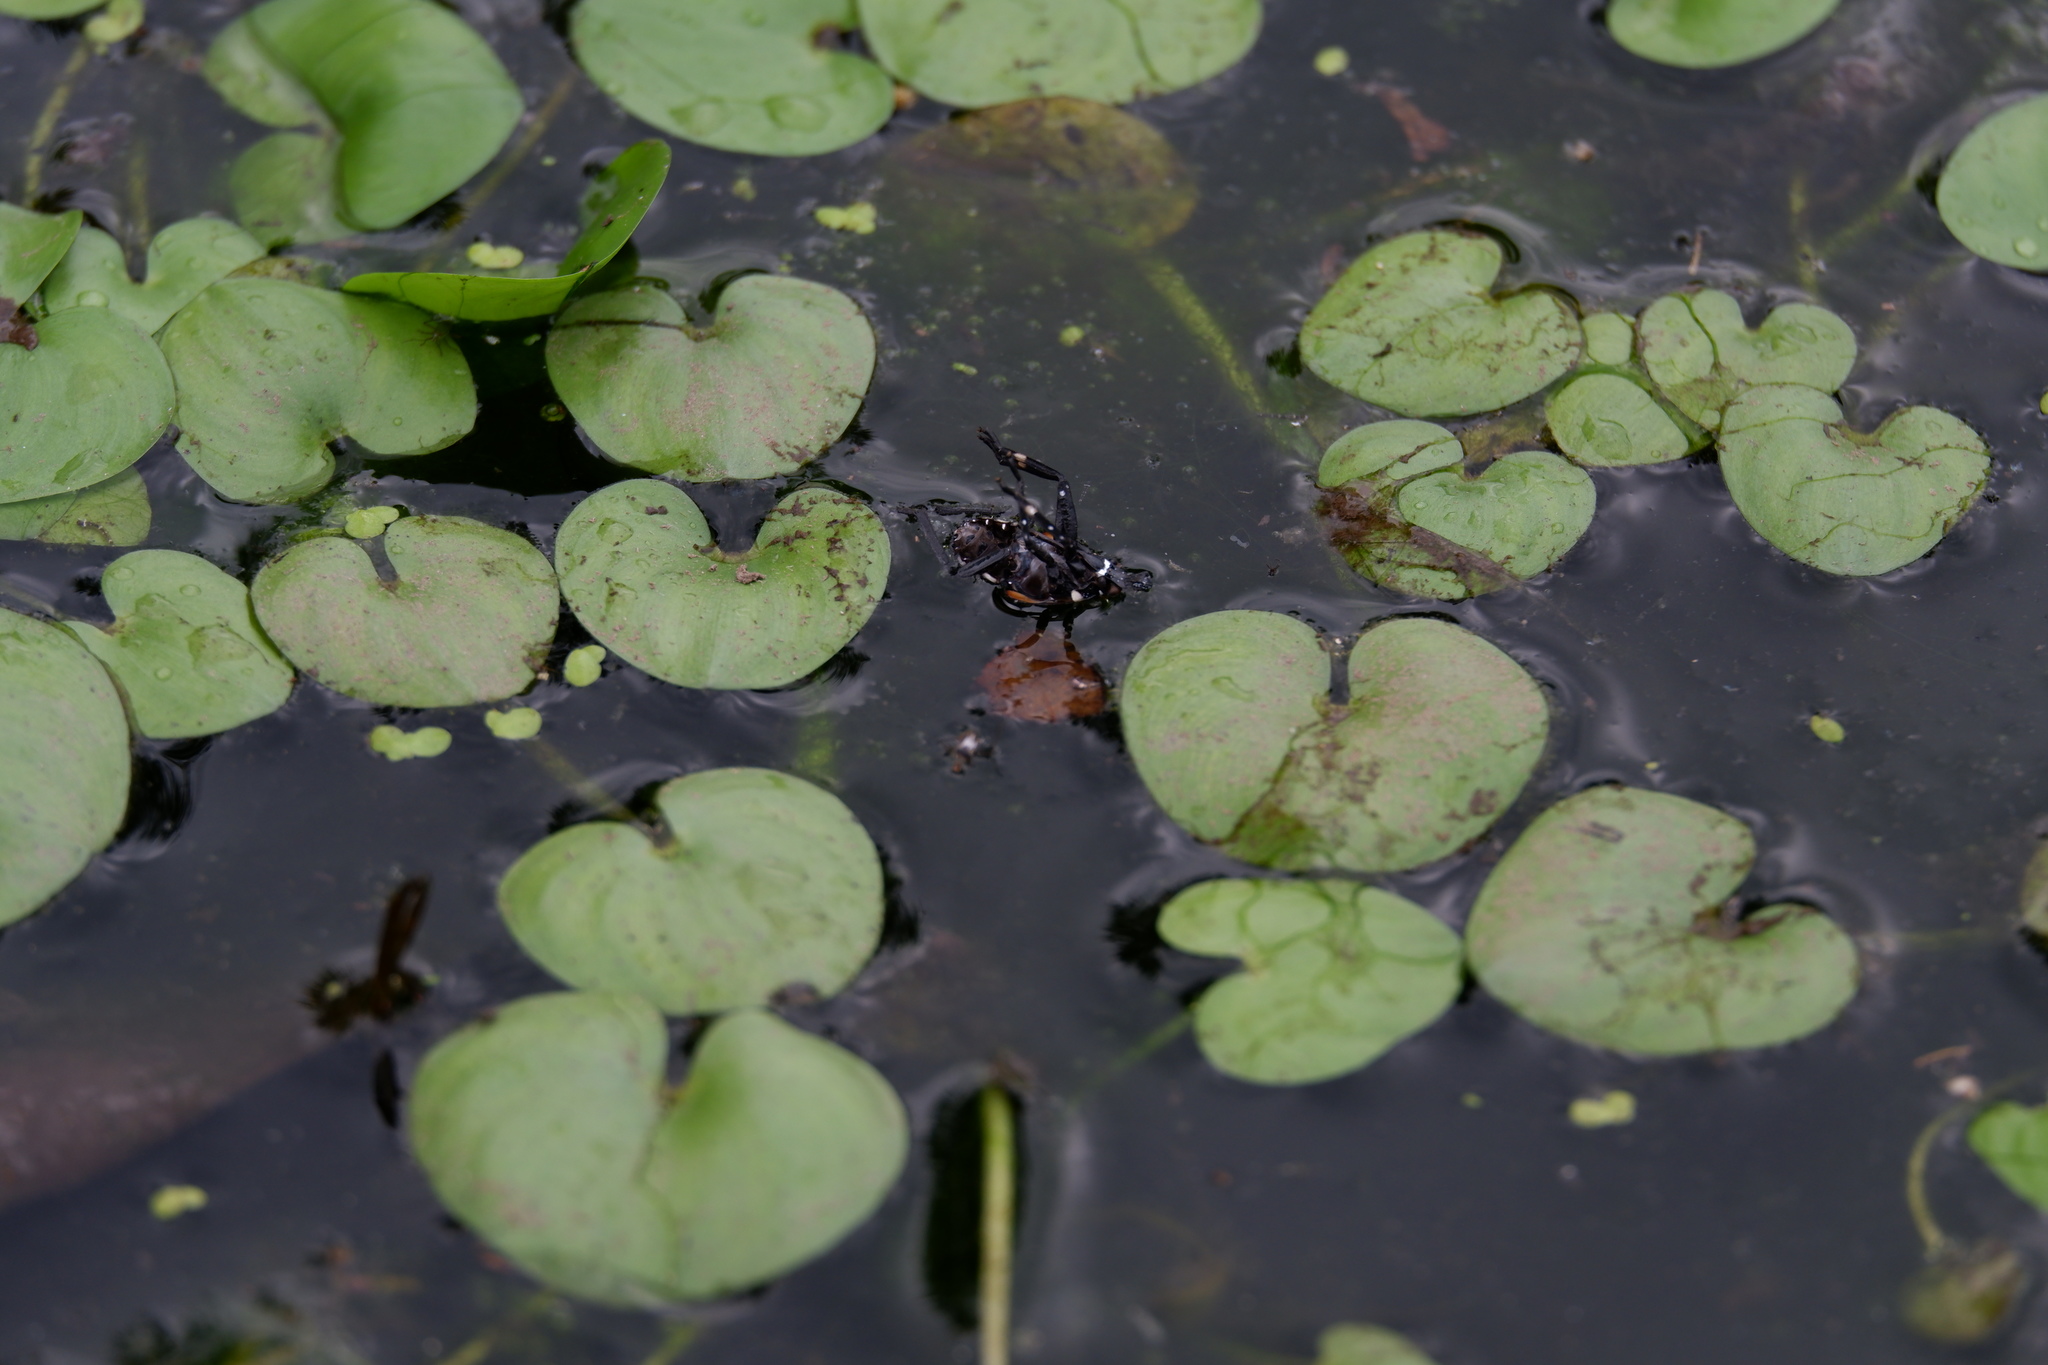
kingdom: Animalia
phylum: Arthropoda
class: Insecta
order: Hemiptera
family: Fulgoridae
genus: Lycorma
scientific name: Lycorma delicatula
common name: Spotted lanternfly
